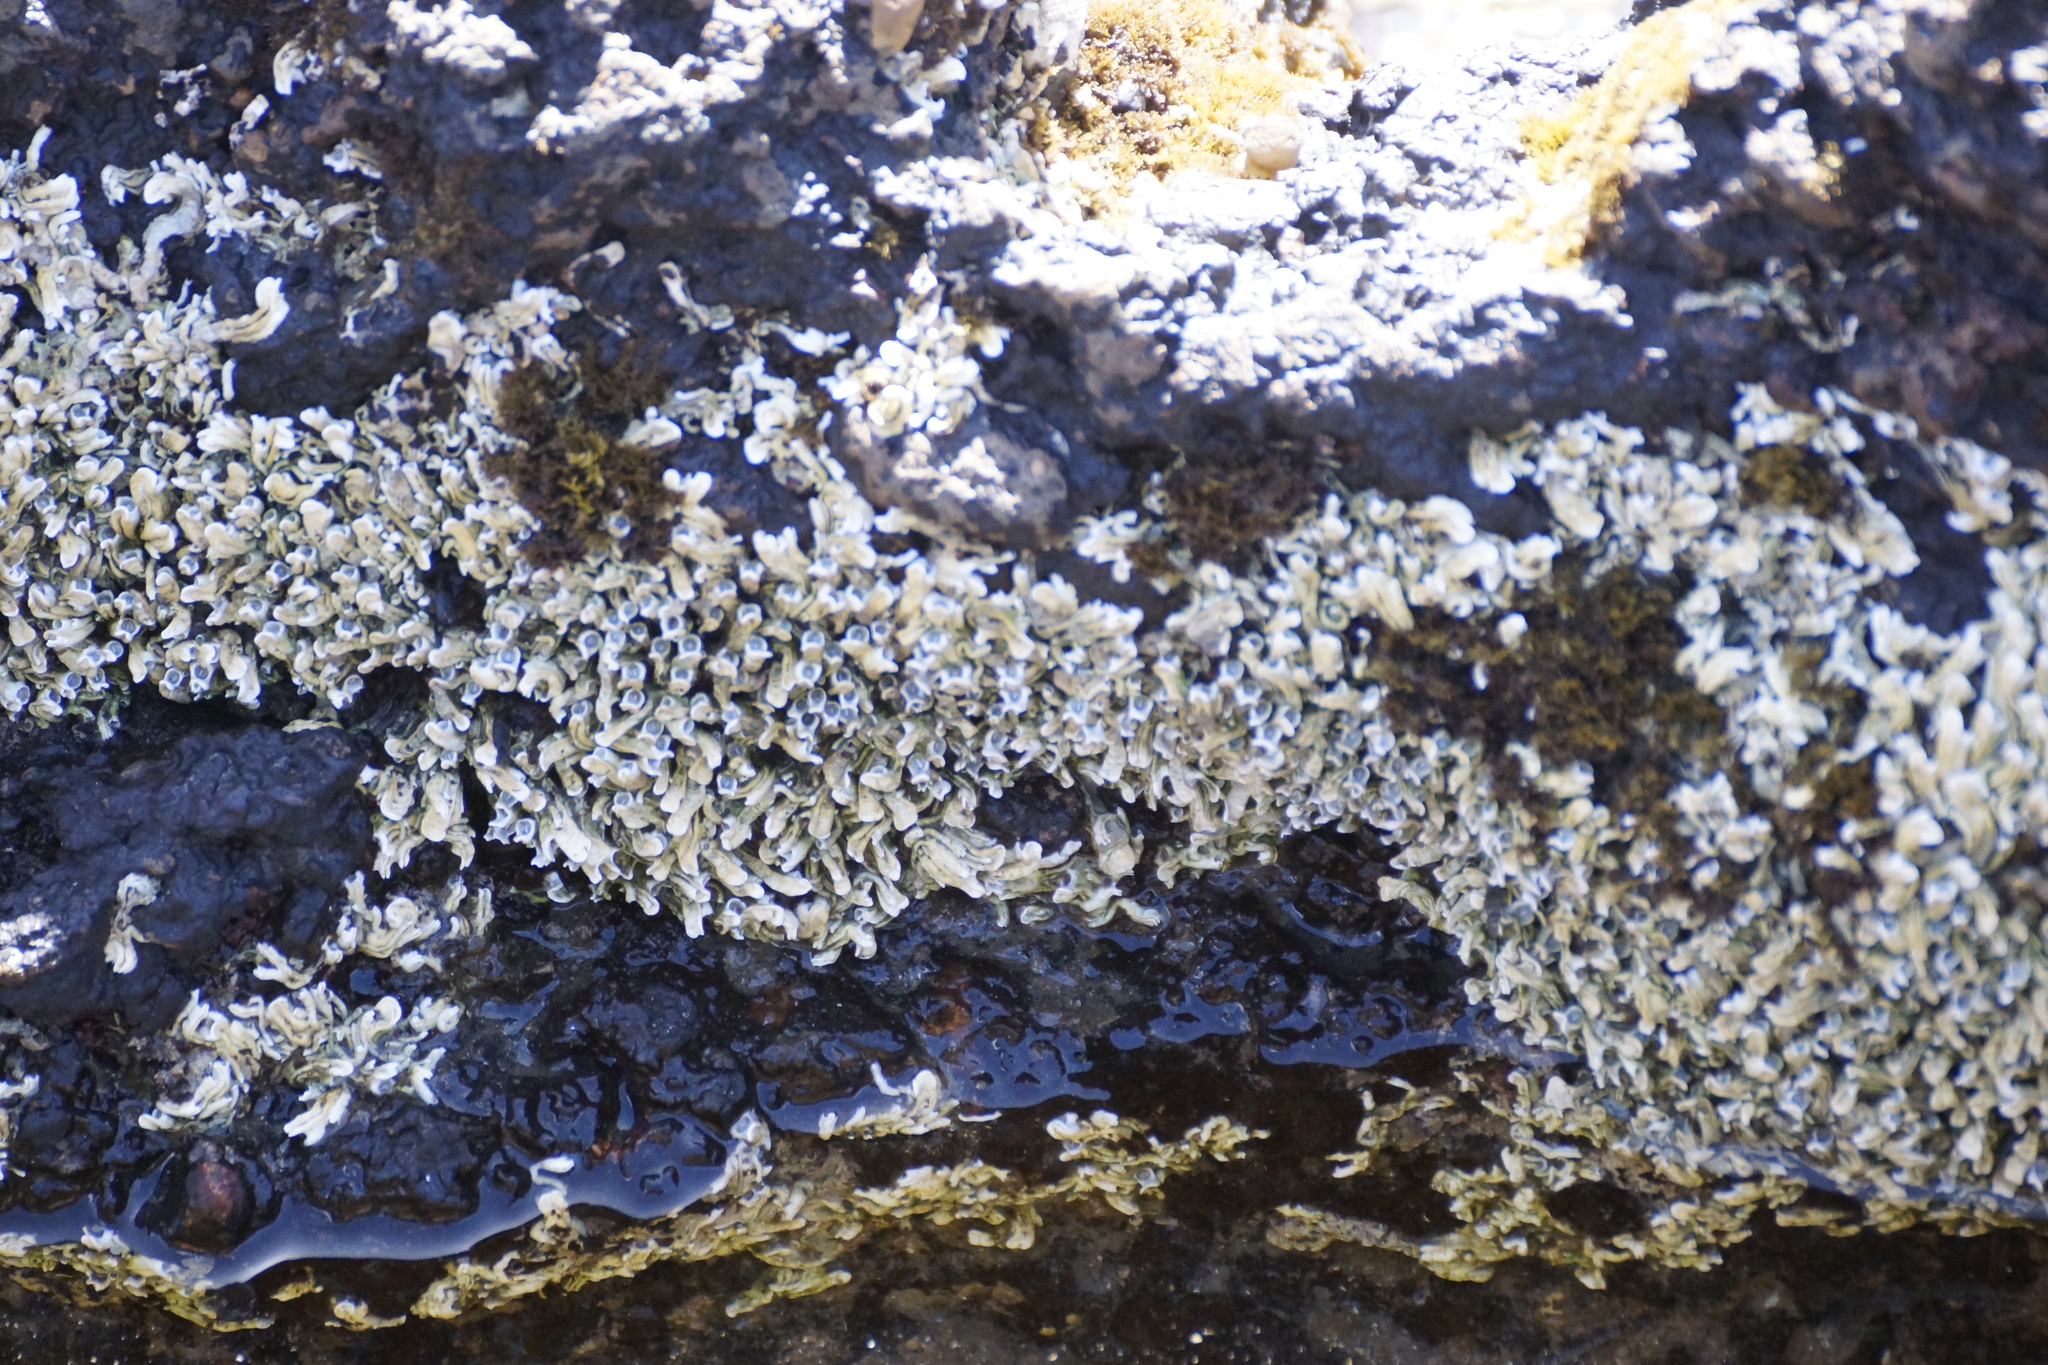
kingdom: Animalia
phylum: Annelida
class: Polychaeta
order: Sabellida
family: Serpulidae
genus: Galeolaria
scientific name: Galeolaria caespitosa
